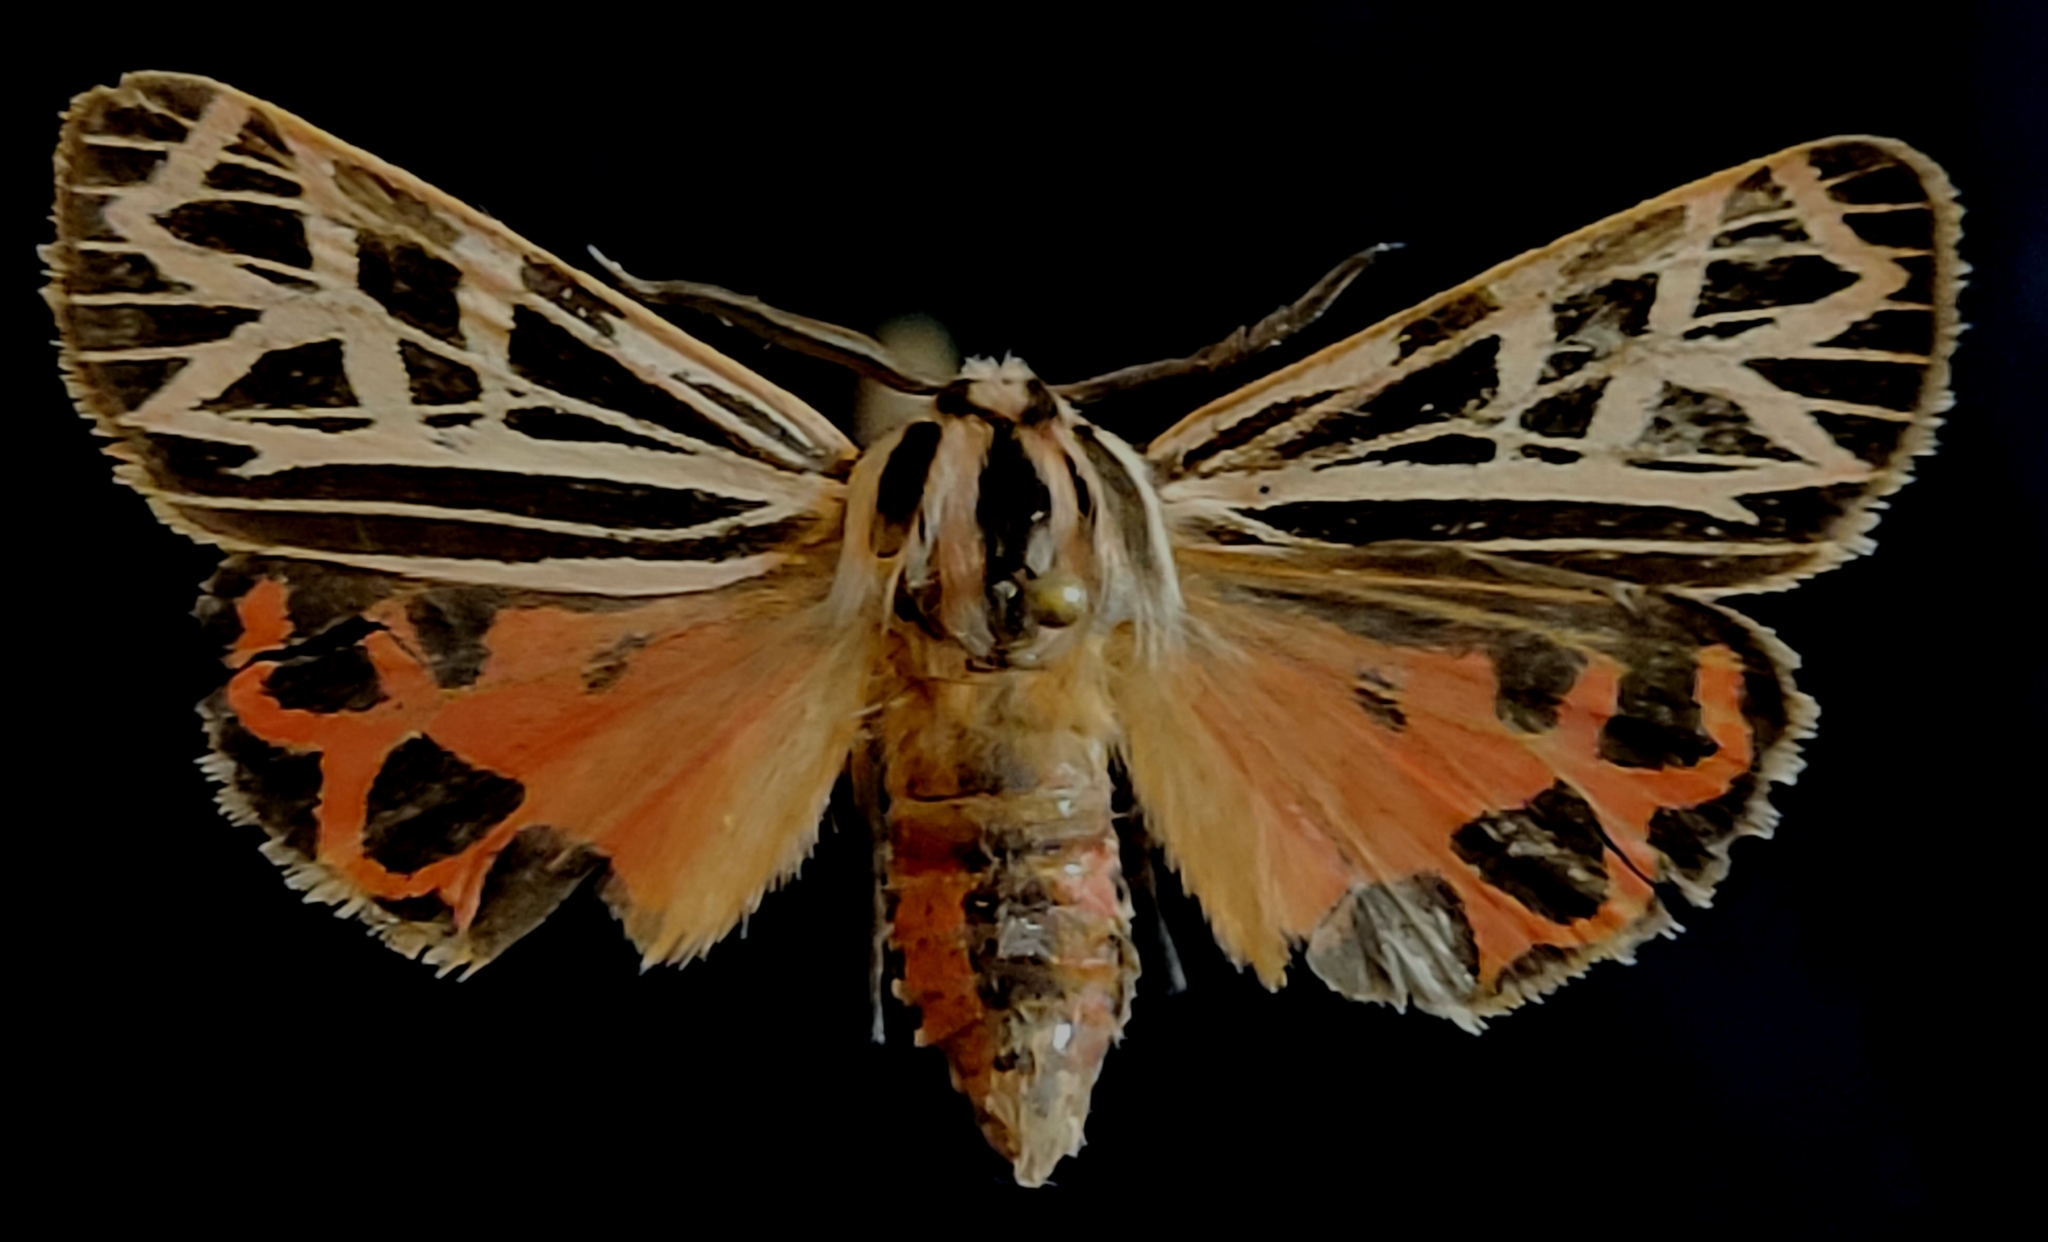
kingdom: Animalia
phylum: Arthropoda
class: Insecta
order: Lepidoptera
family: Erebidae
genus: Apantesis
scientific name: Apantesis
